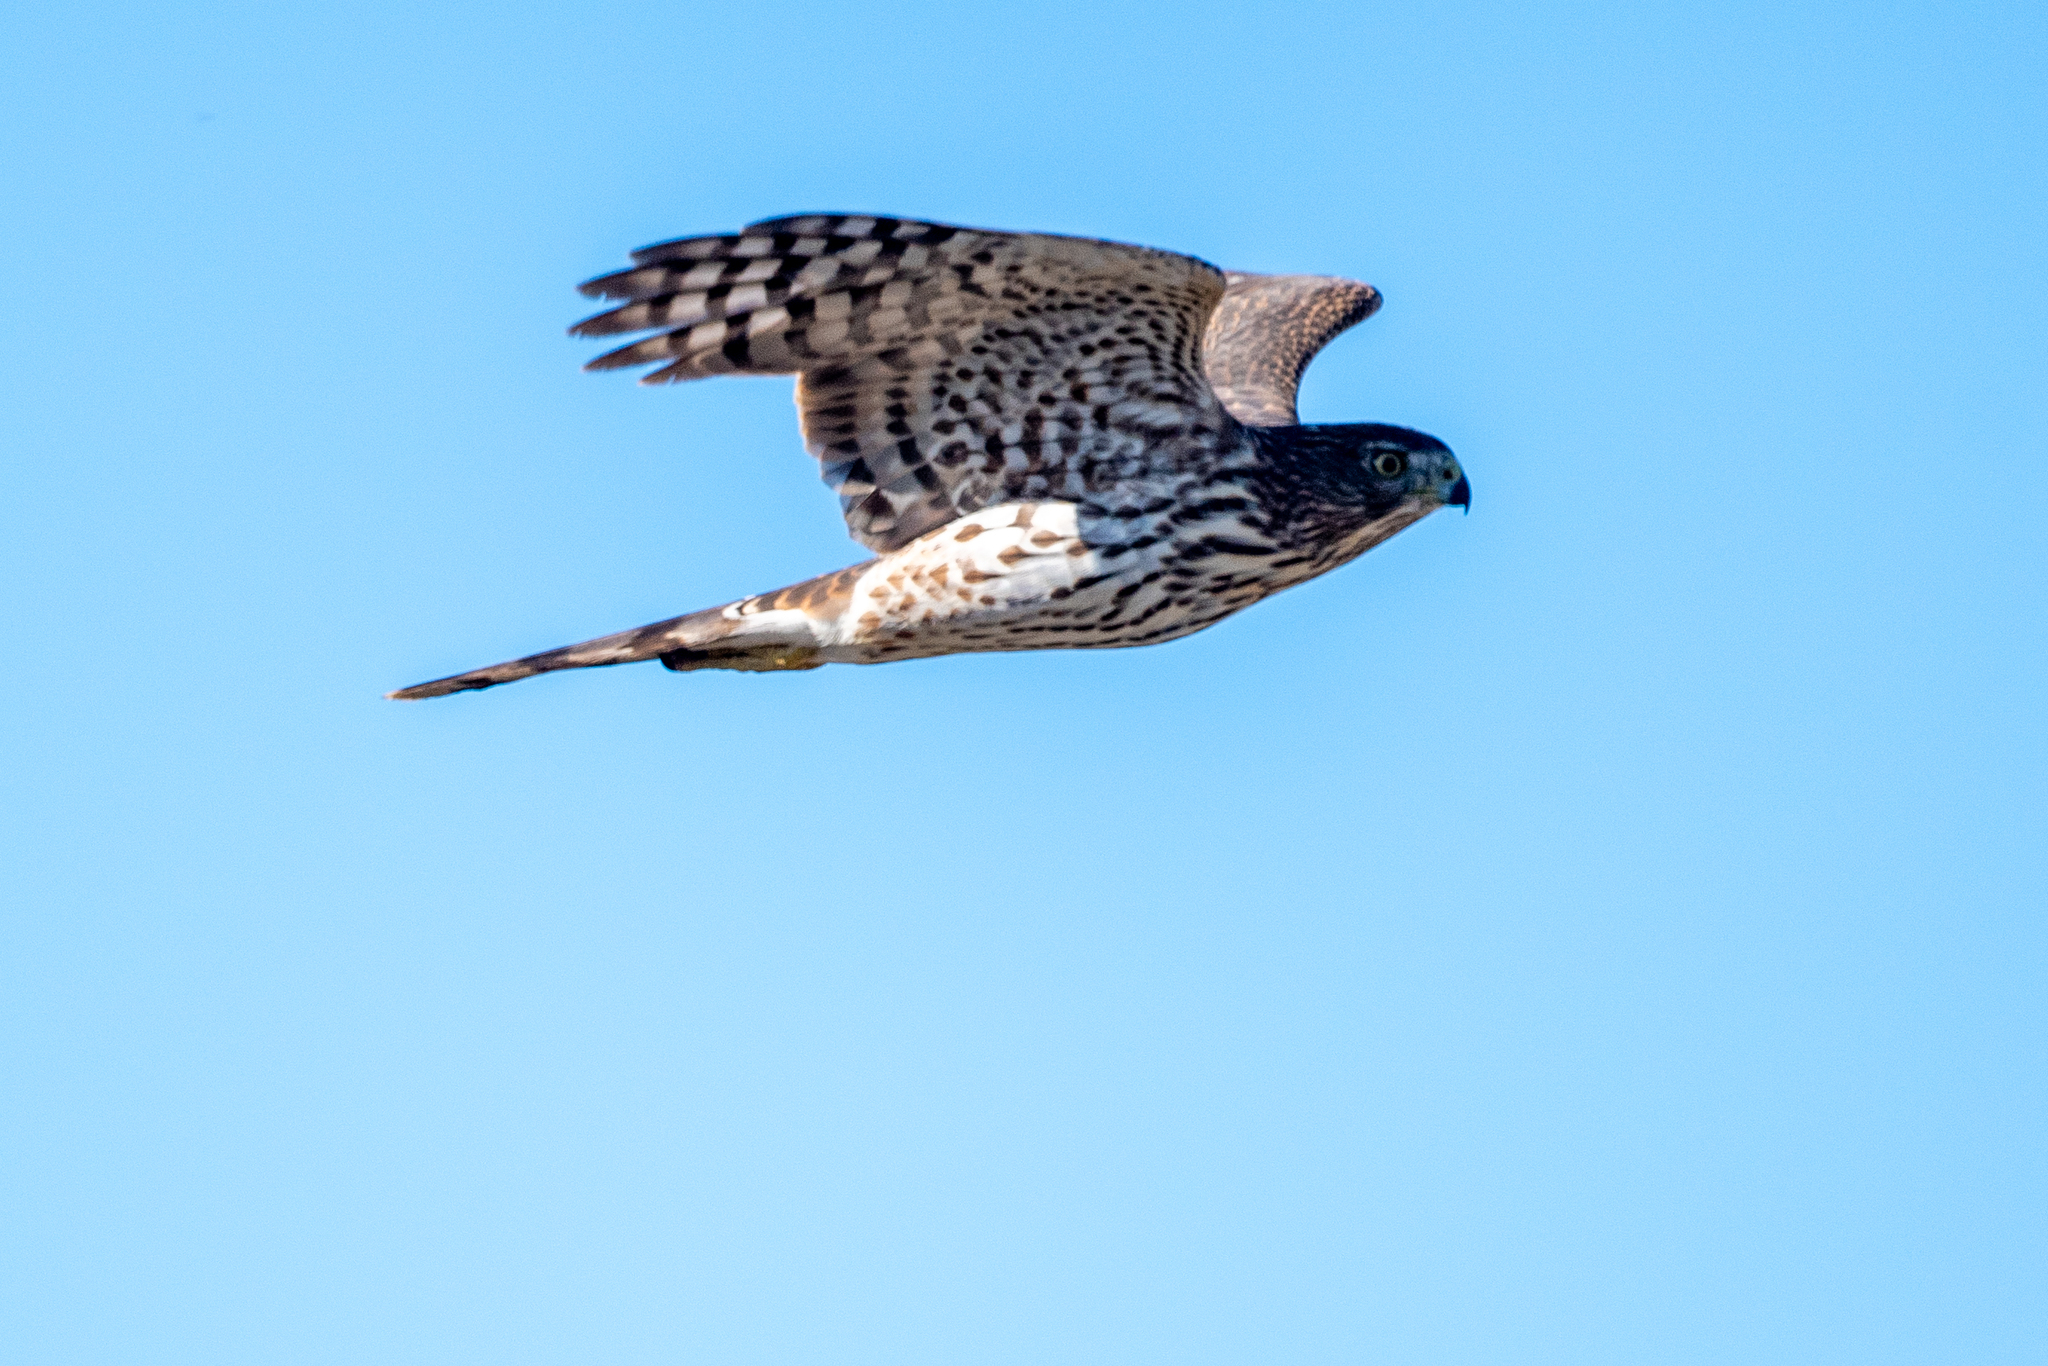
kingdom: Animalia
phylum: Chordata
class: Aves
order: Accipitriformes
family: Accipitridae
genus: Accipiter
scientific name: Accipiter cooperii
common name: Cooper's hawk
